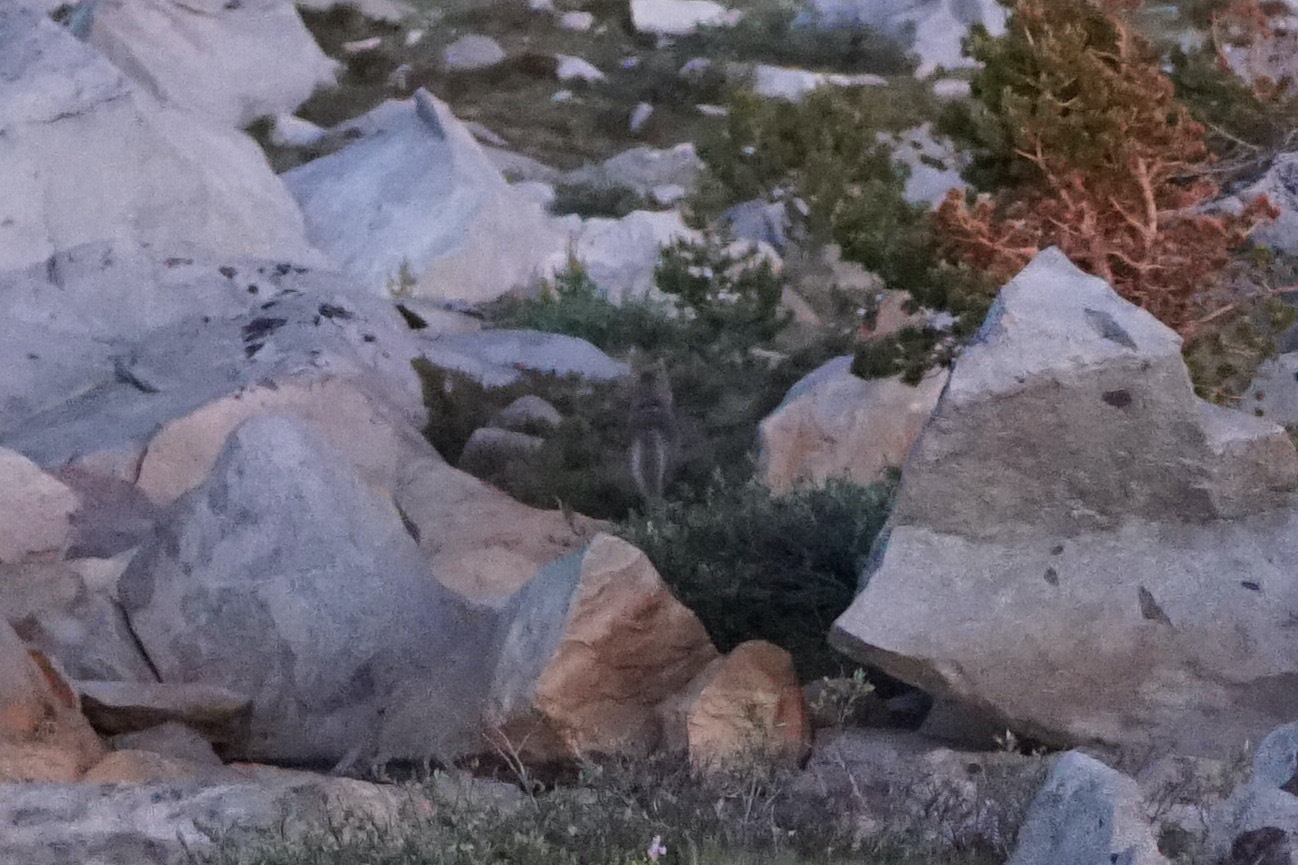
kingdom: Animalia
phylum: Chordata
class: Mammalia
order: Carnivora
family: Canidae
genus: Canis
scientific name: Canis latrans
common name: Coyote
